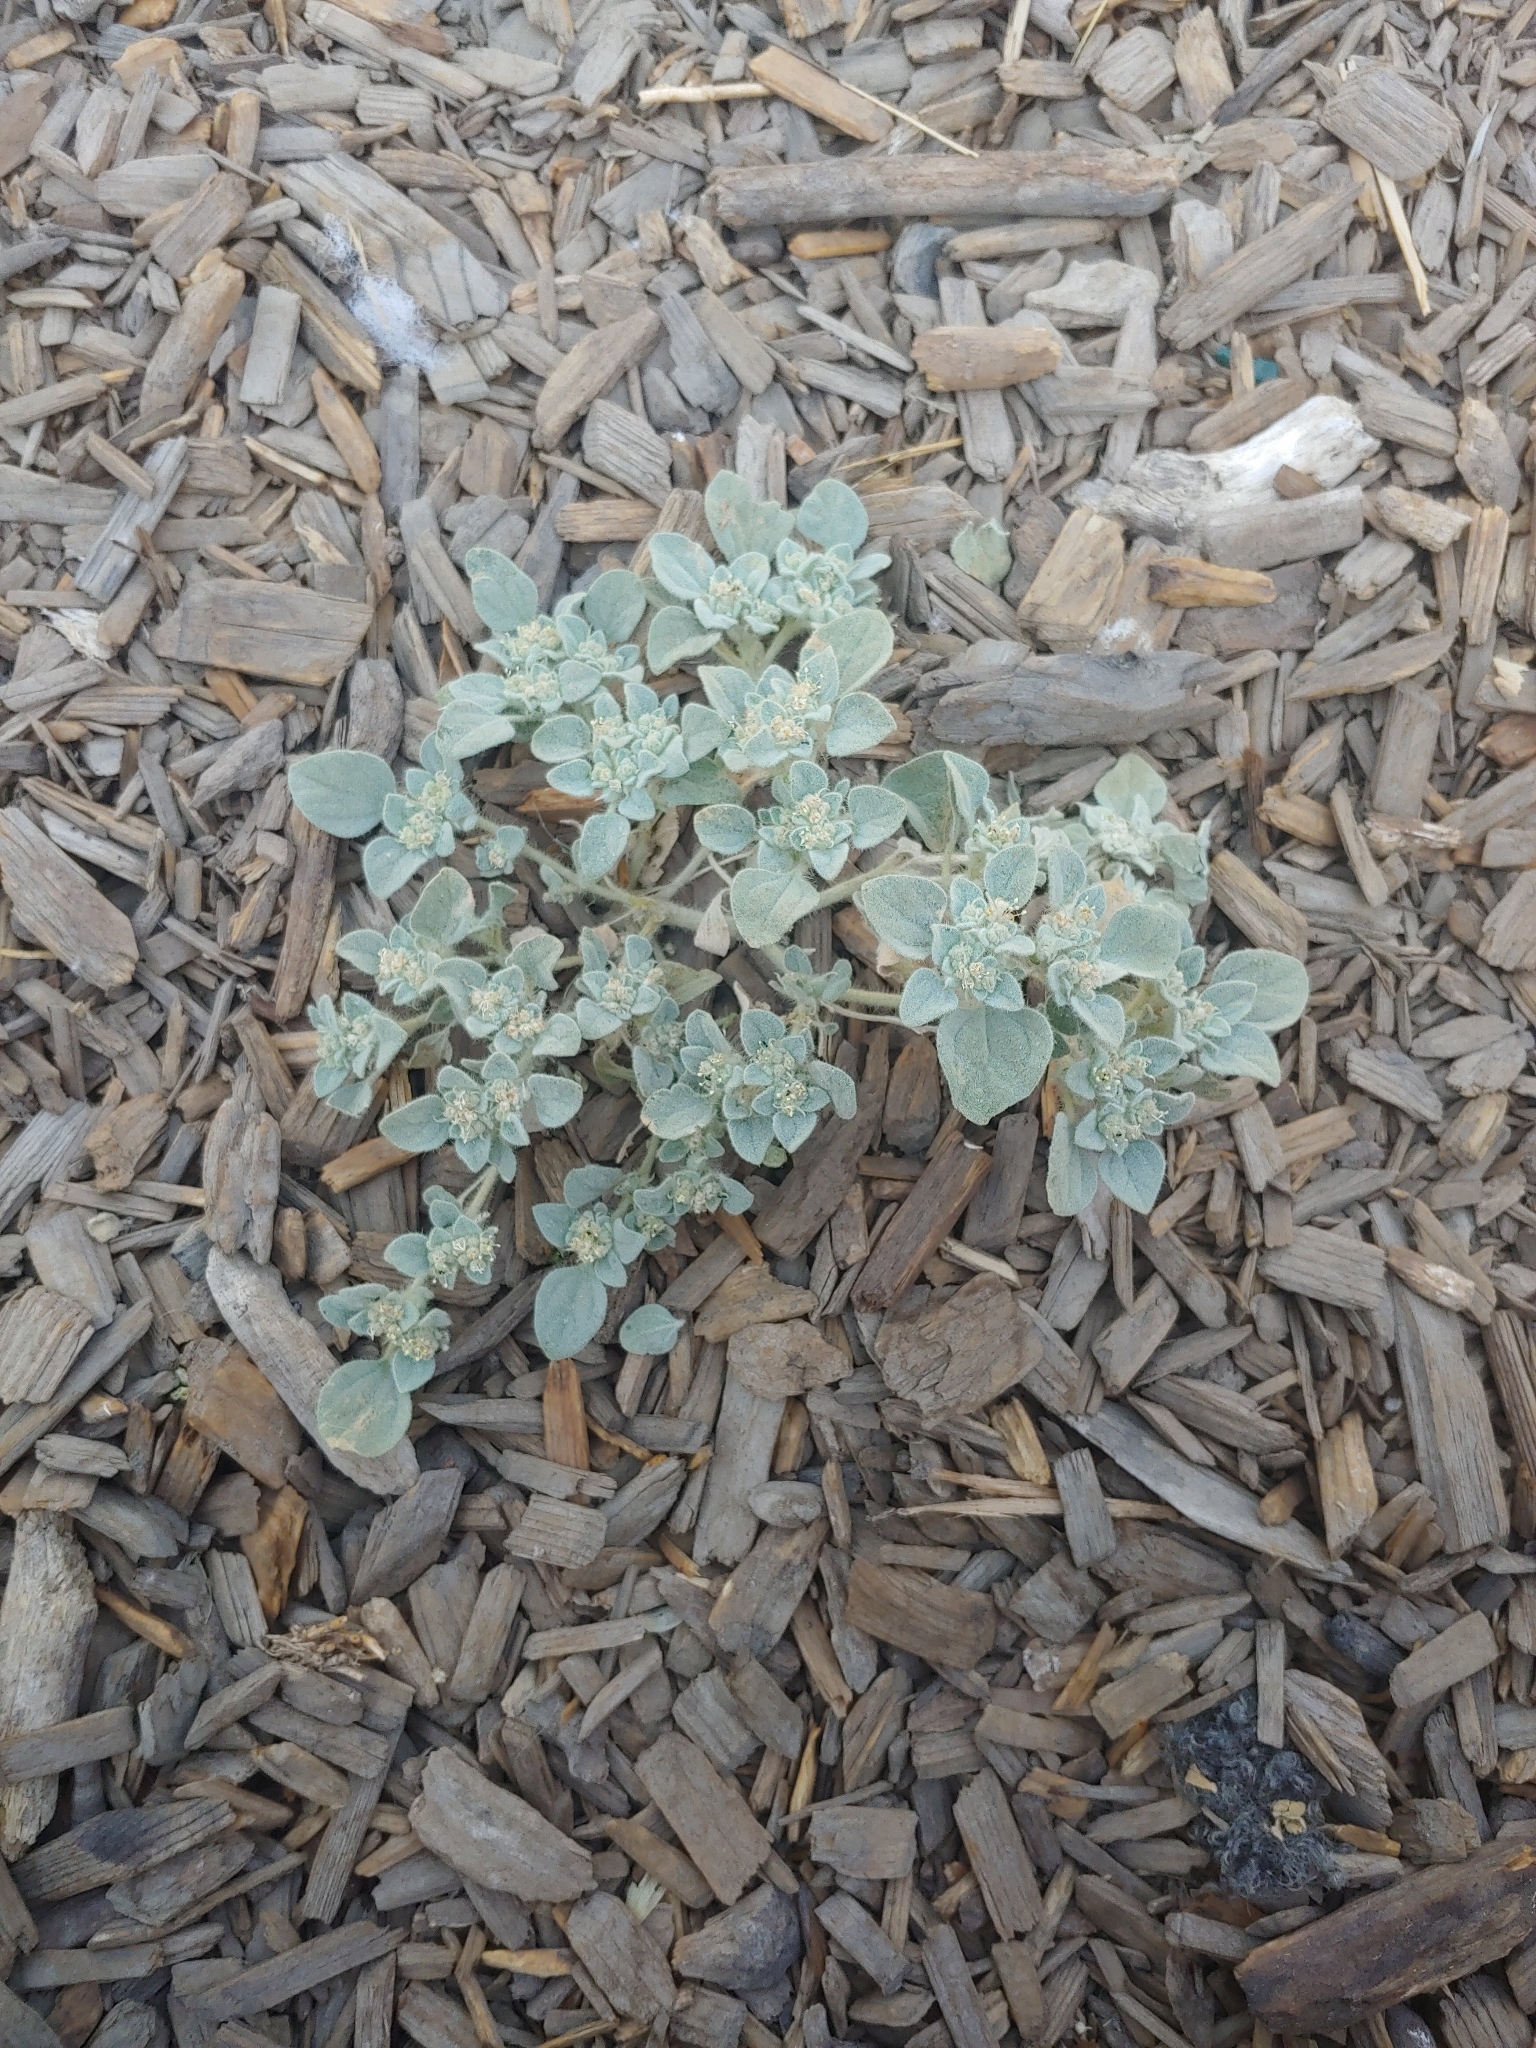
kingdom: Plantae
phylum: Tracheophyta
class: Magnoliopsida
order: Malpighiales
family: Euphorbiaceae
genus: Croton
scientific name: Croton setiger
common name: Dove weed
